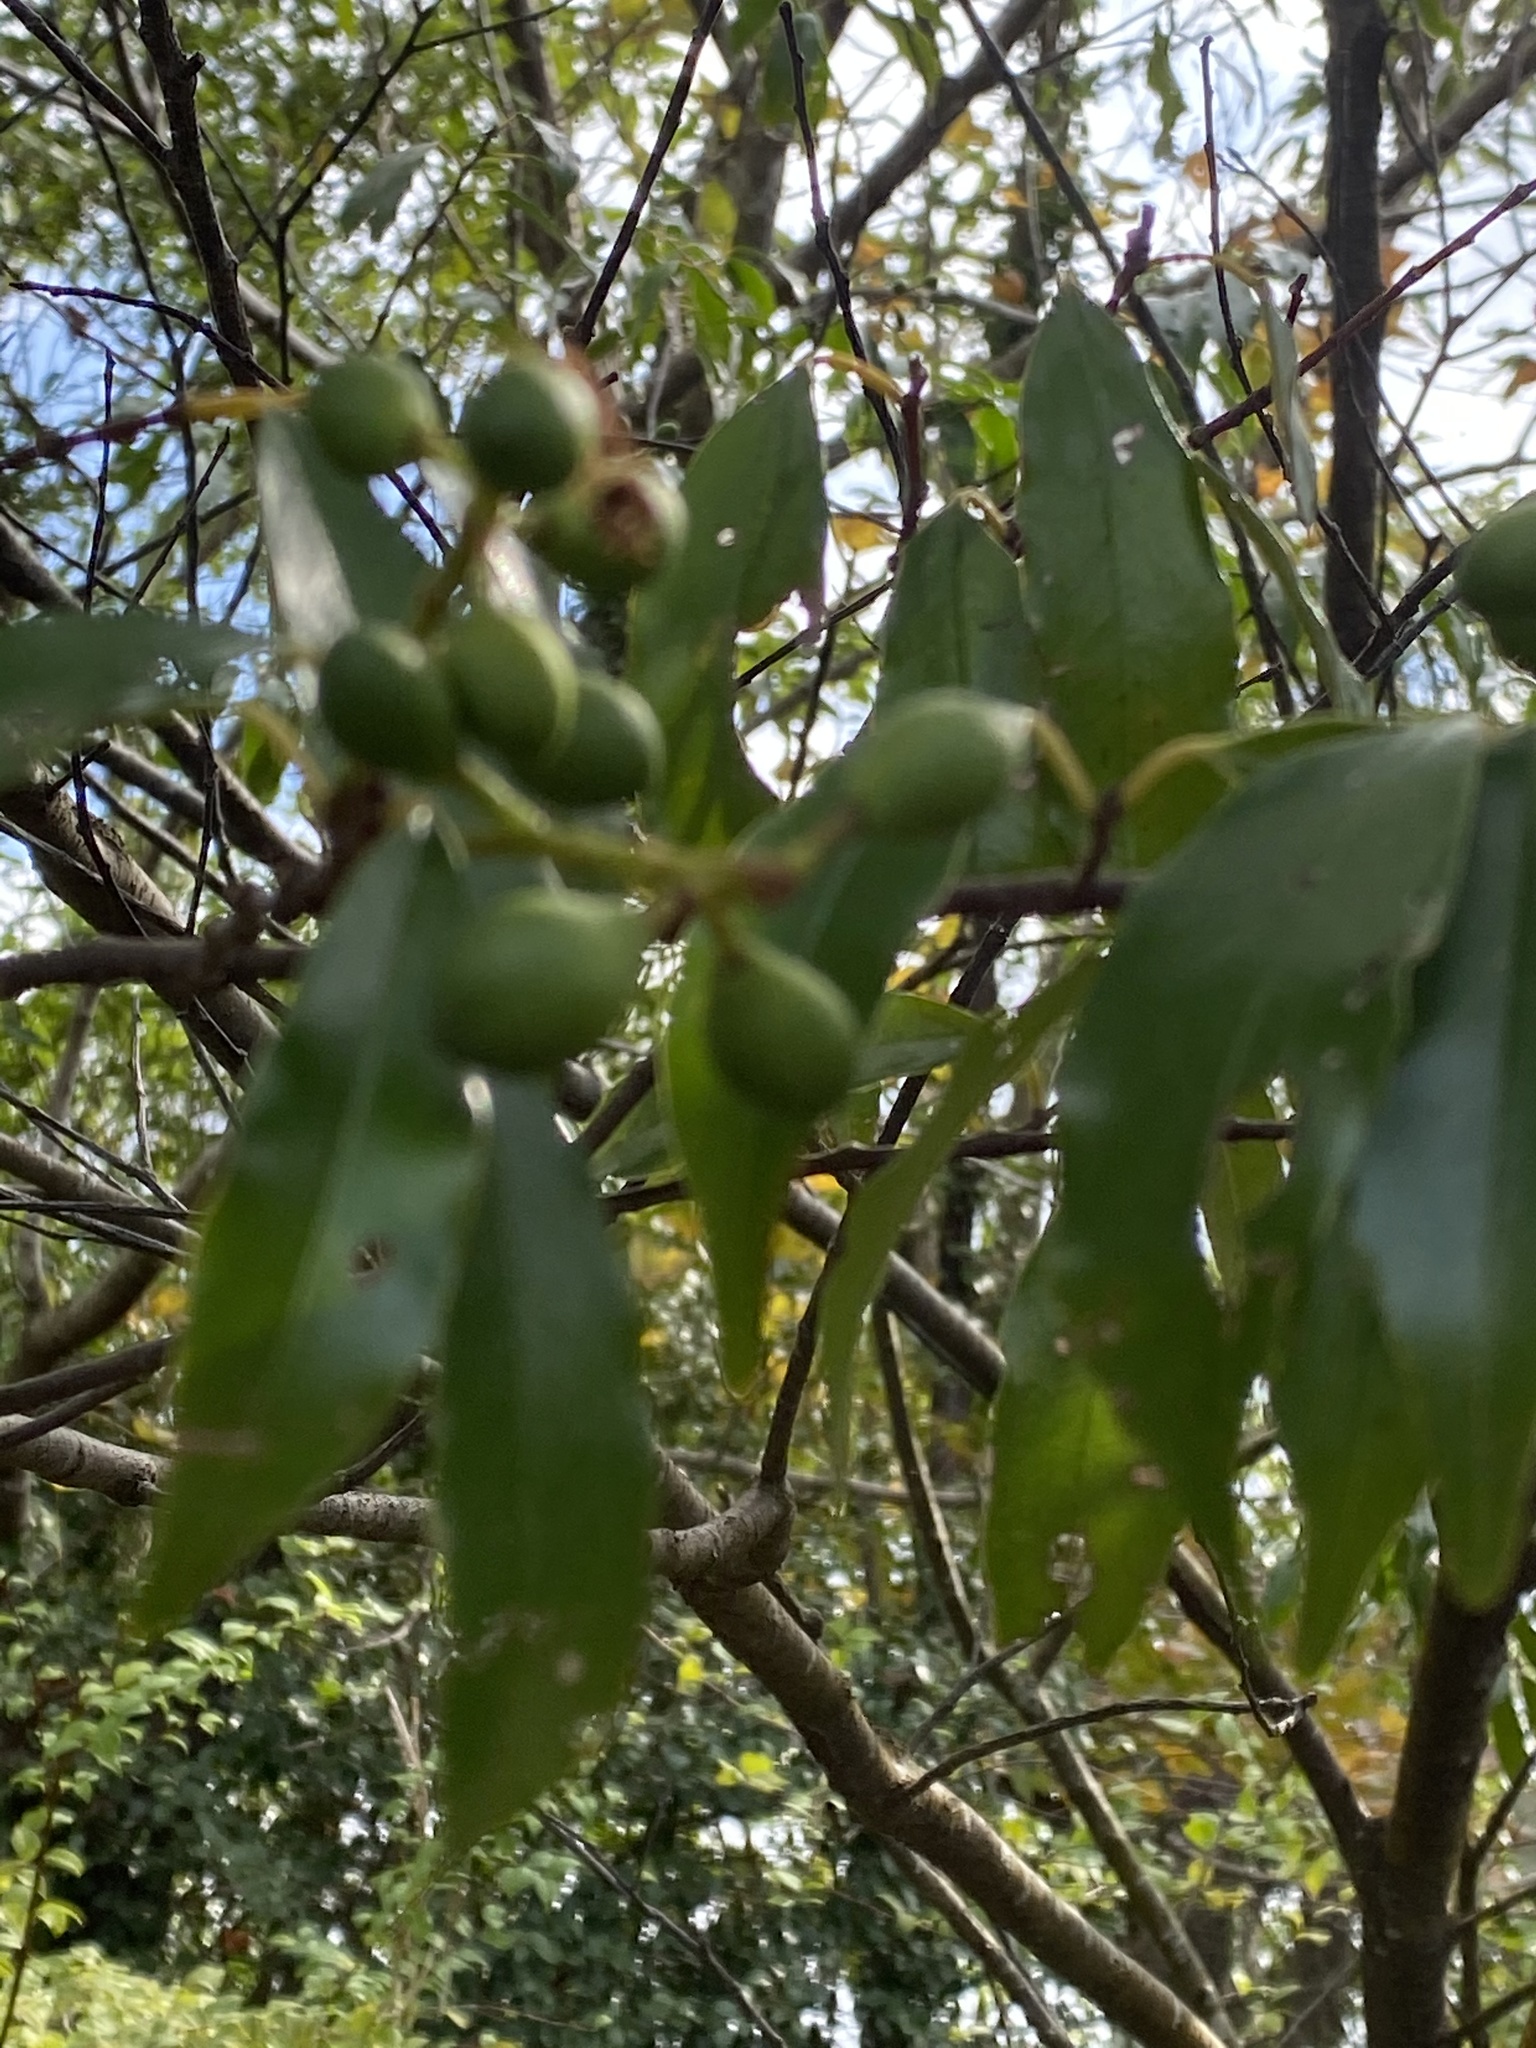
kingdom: Plantae
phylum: Tracheophyta
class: Magnoliopsida
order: Rosales
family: Rosaceae
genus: Prunus
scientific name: Prunus spinulosa
